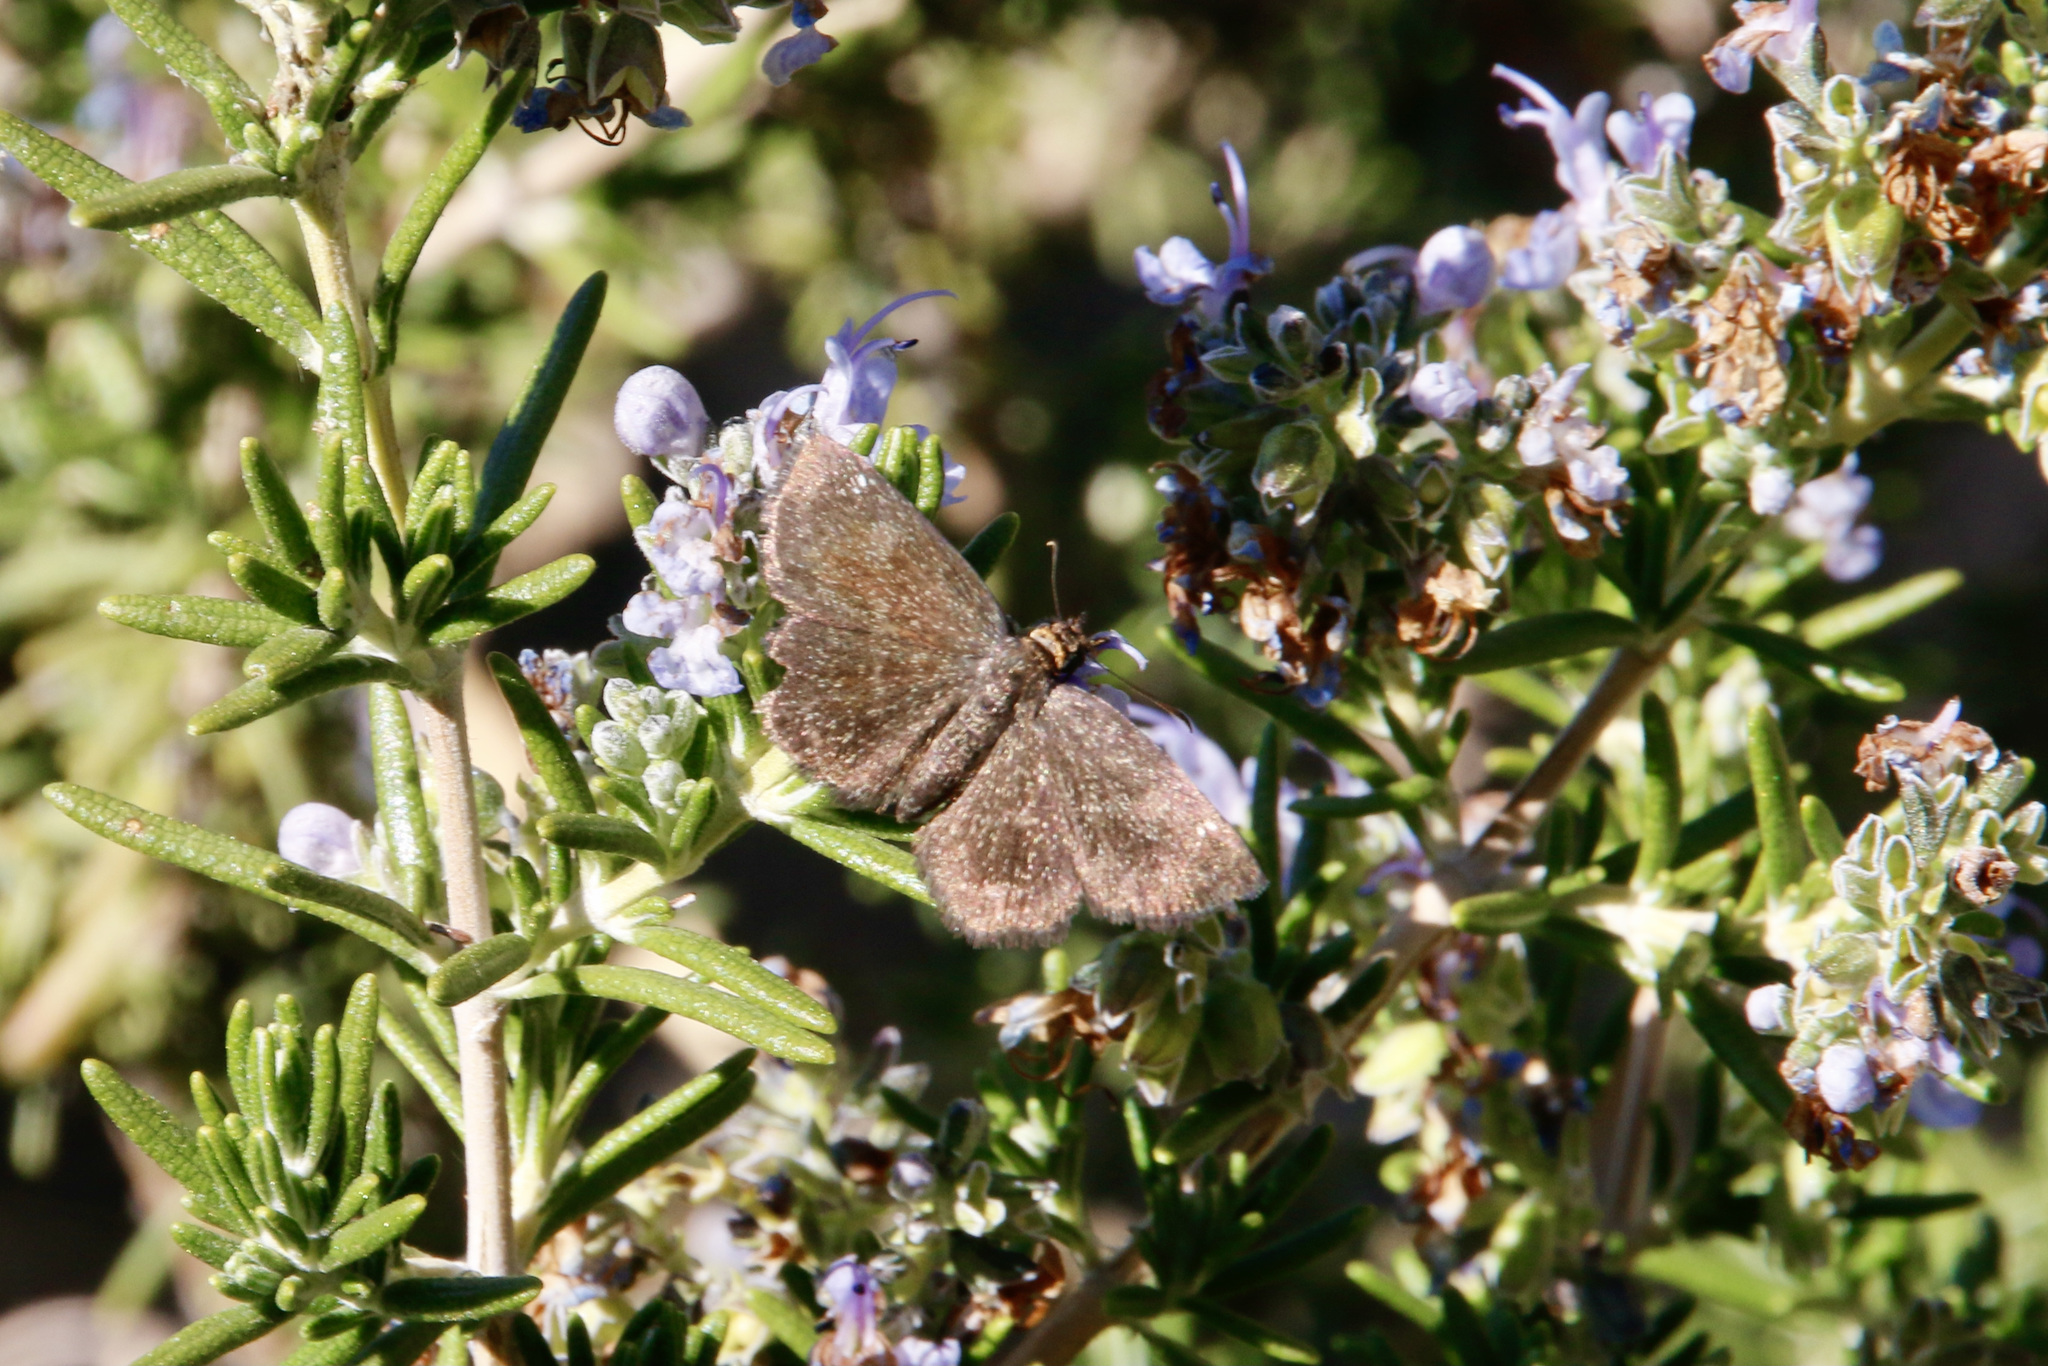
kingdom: Animalia
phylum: Arthropoda
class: Insecta
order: Lepidoptera
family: Hesperiidae
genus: Staphylus
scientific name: Staphylus ceos
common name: Golden-headed scallopwing
